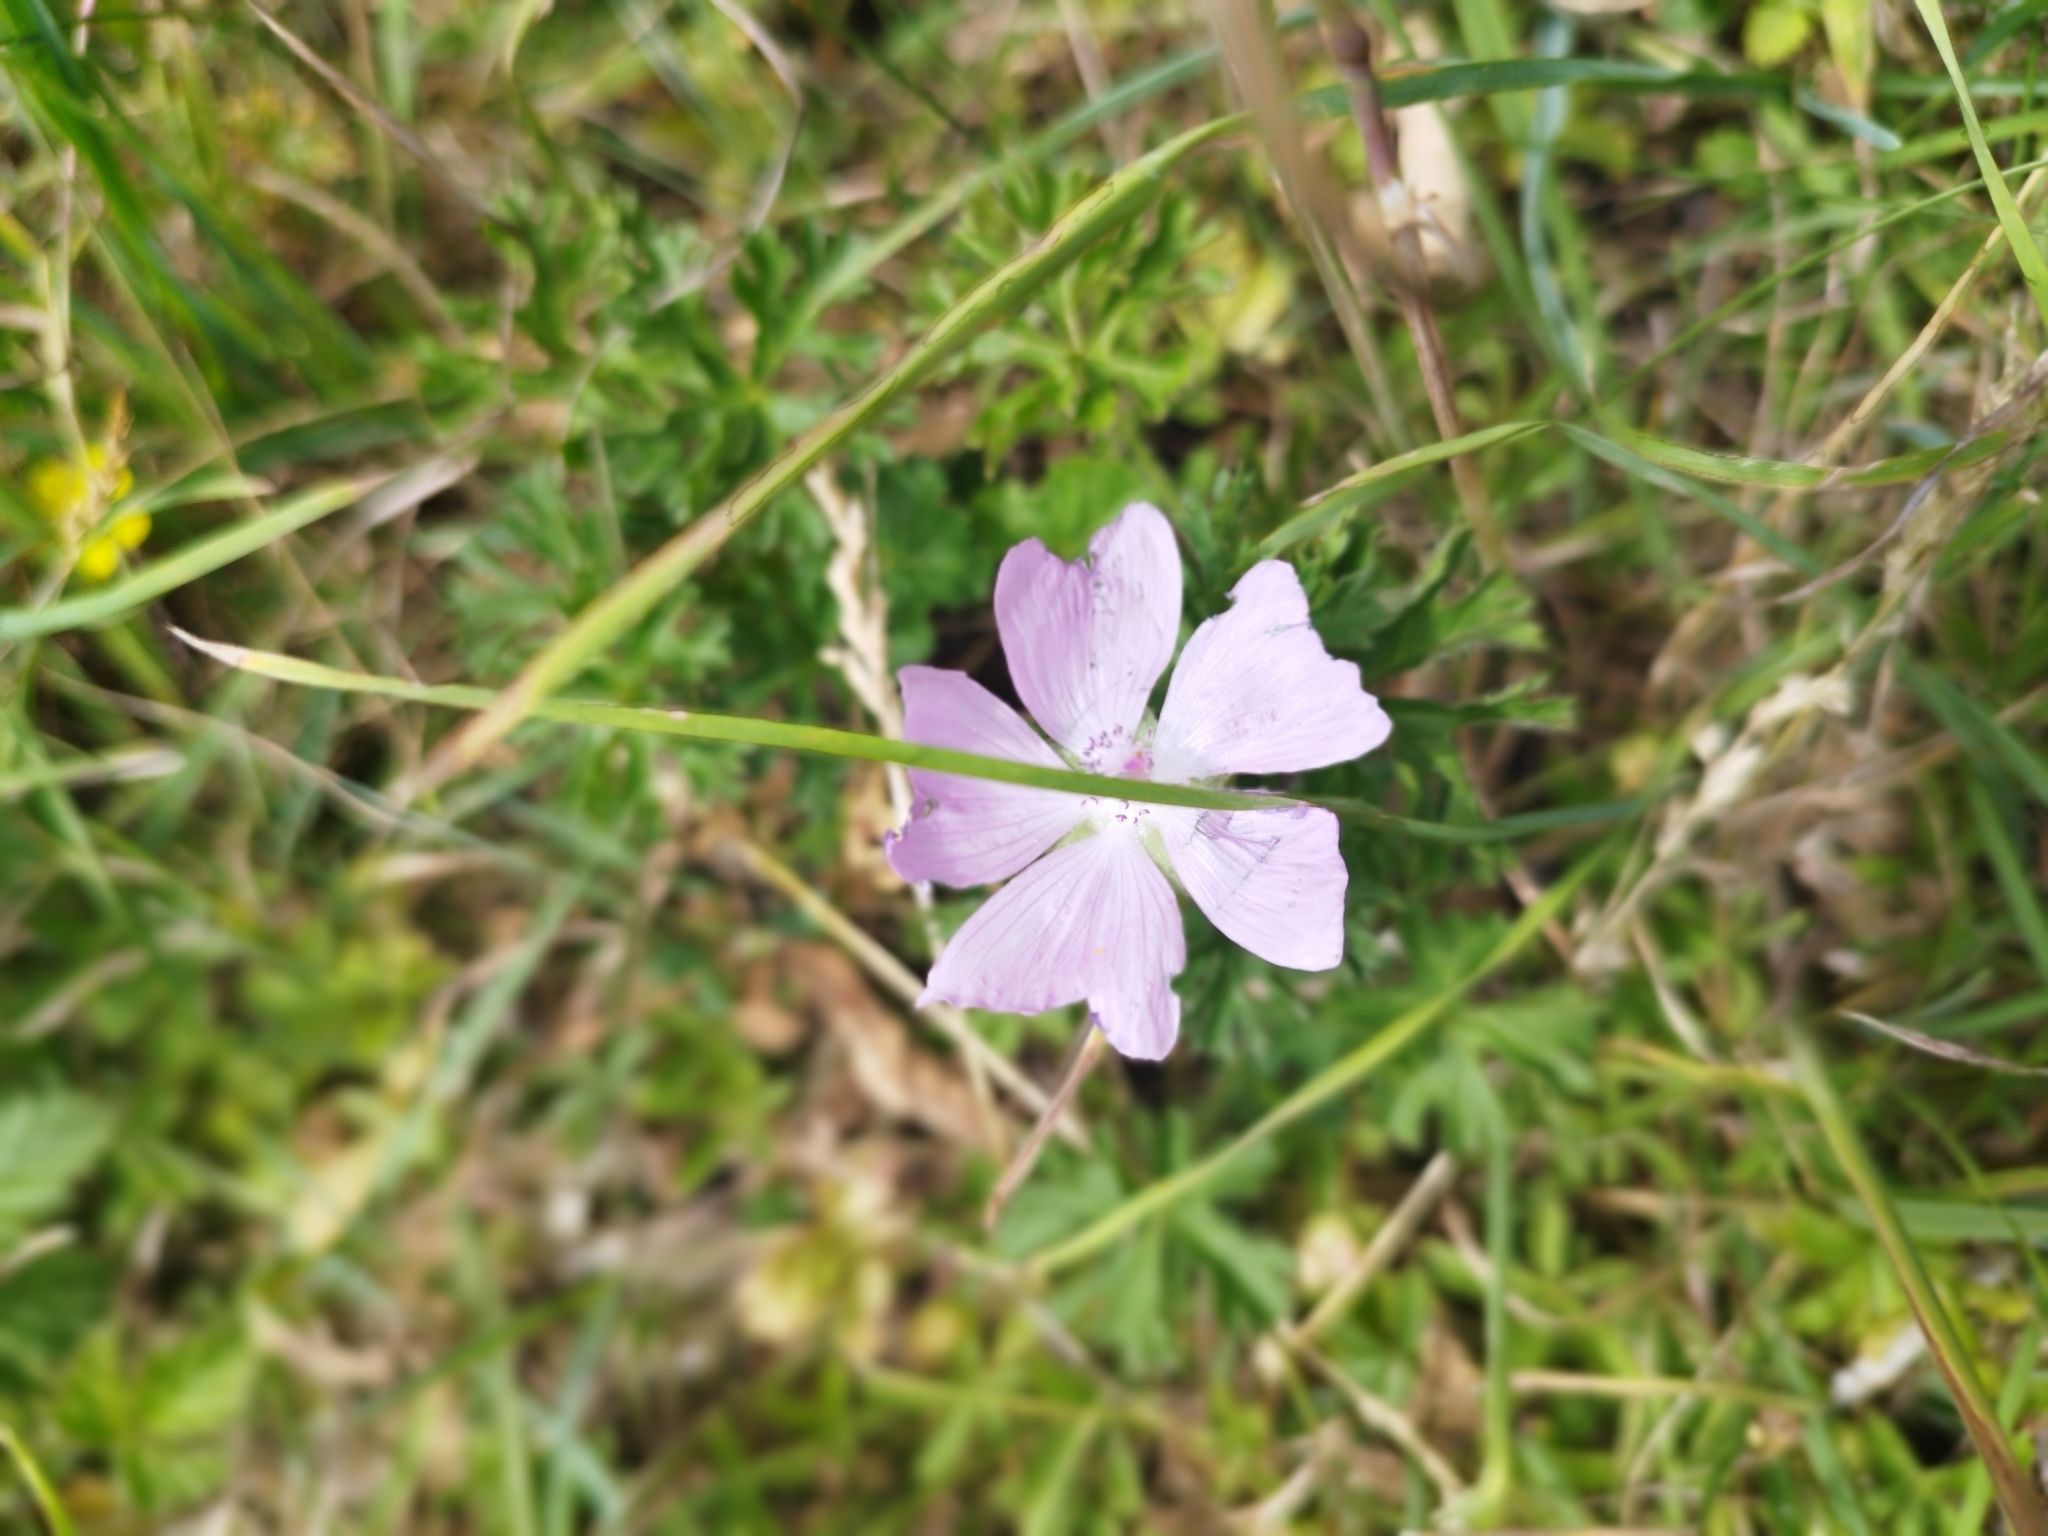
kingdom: Plantae
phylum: Tracheophyta
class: Magnoliopsida
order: Malvales
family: Malvaceae
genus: Malva
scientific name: Malva moschata
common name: Musk mallow
